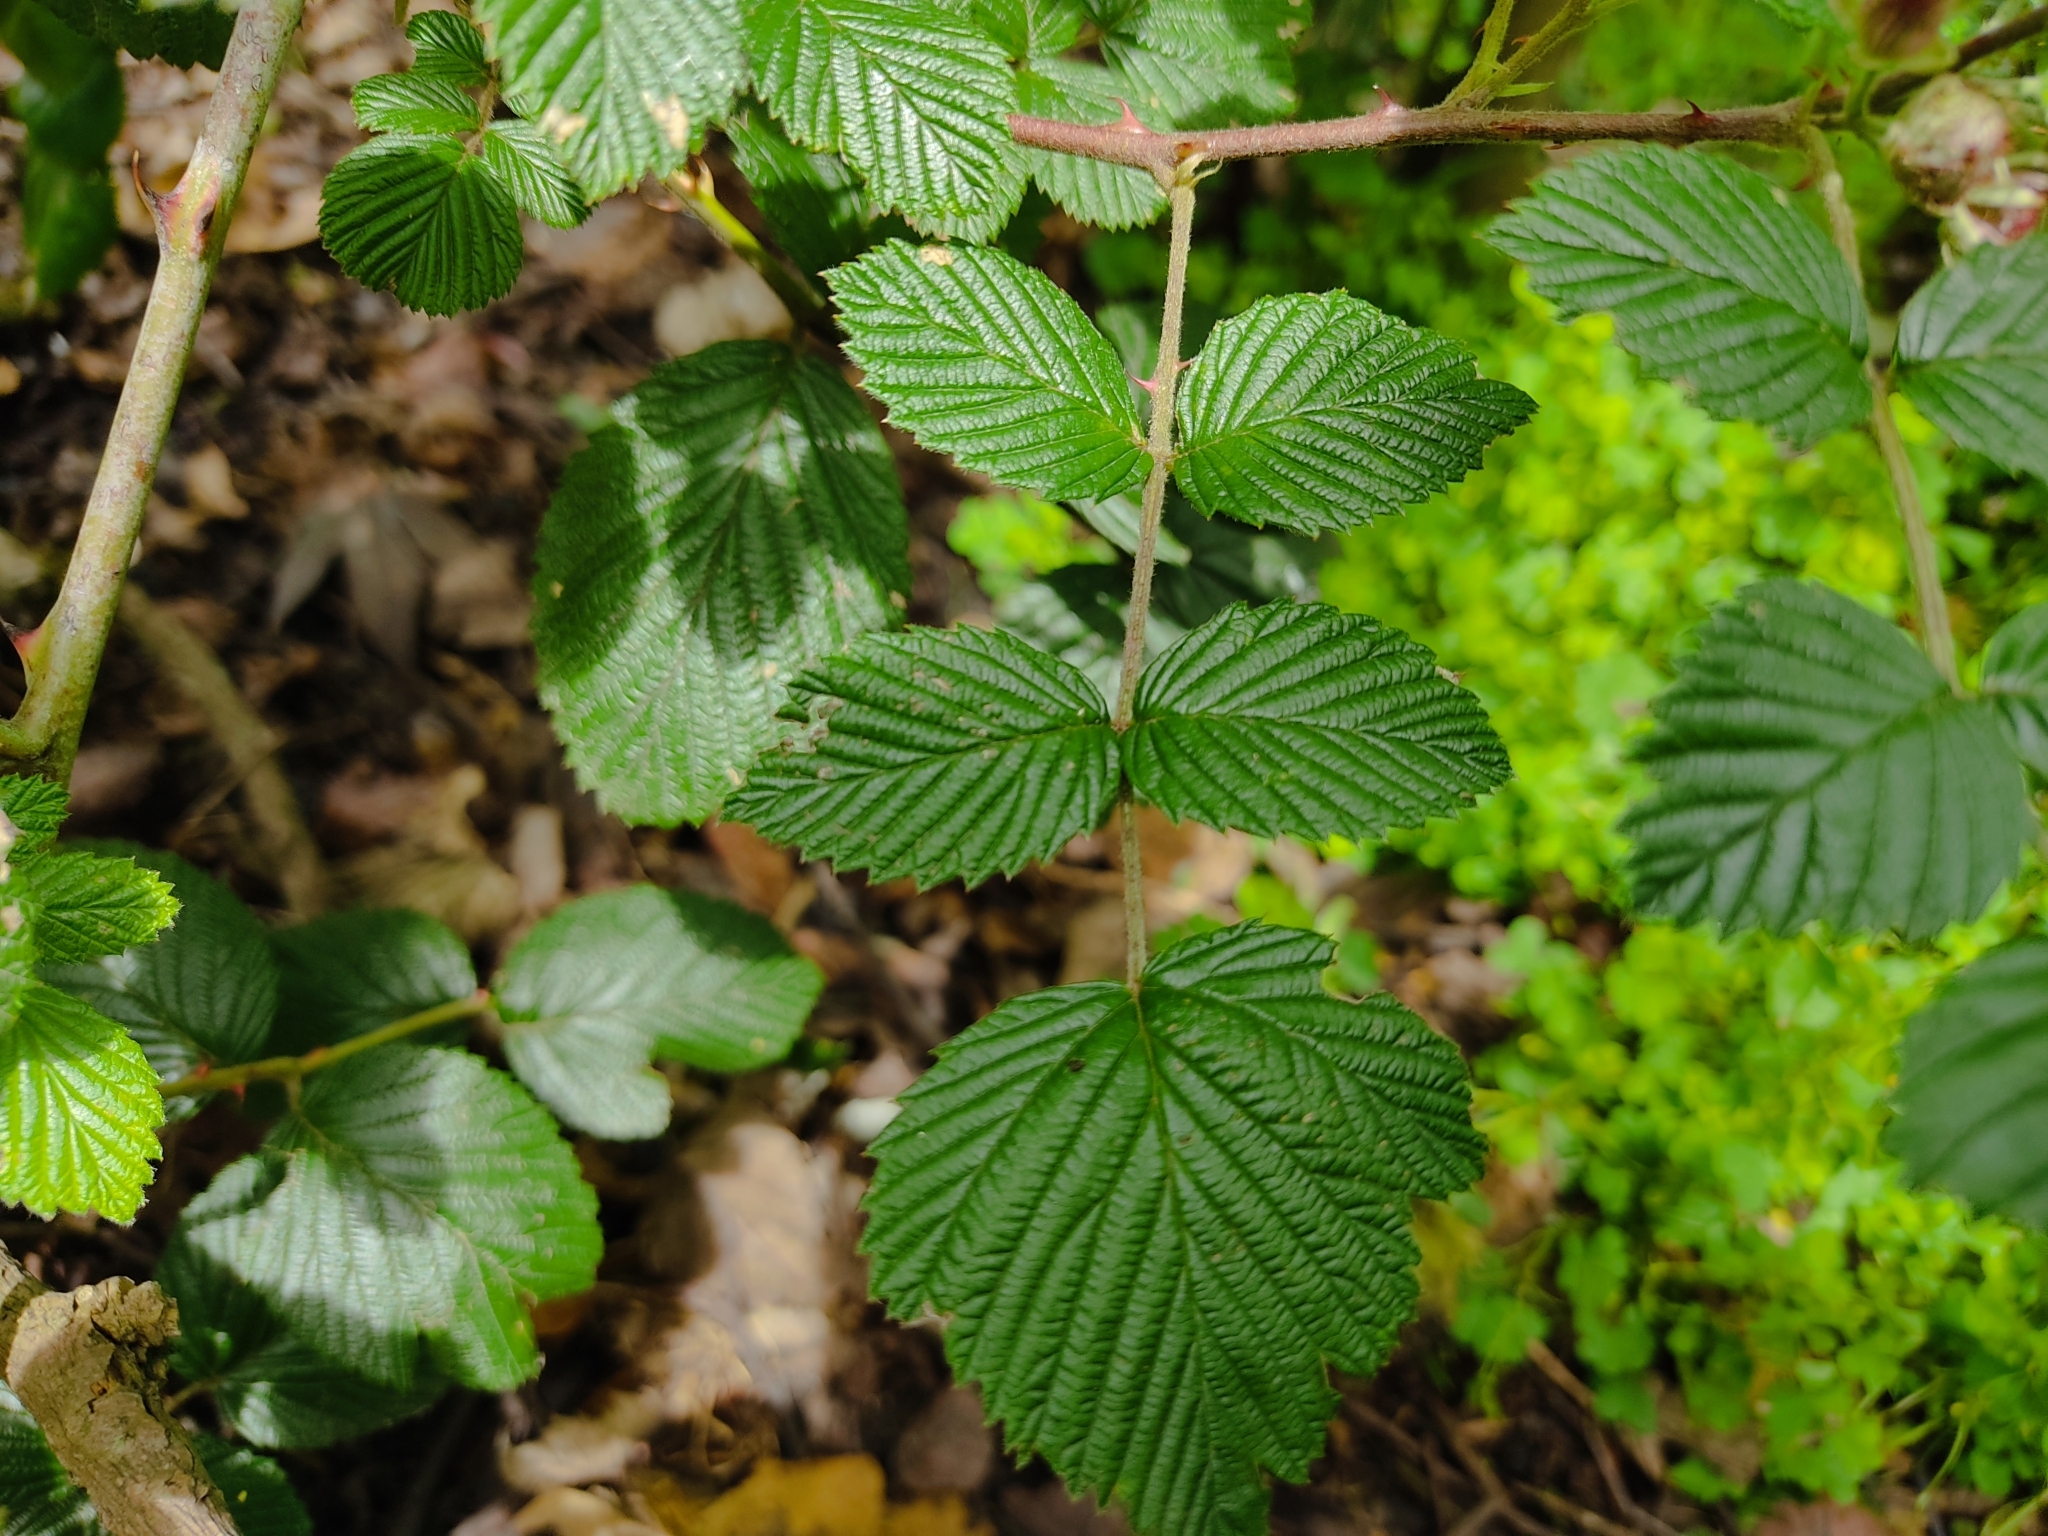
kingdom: Plantae
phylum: Tracheophyta
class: Magnoliopsida
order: Rosales
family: Rosaceae
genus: Rubus
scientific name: Rubus niveus
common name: Snowpeaks raspberry
